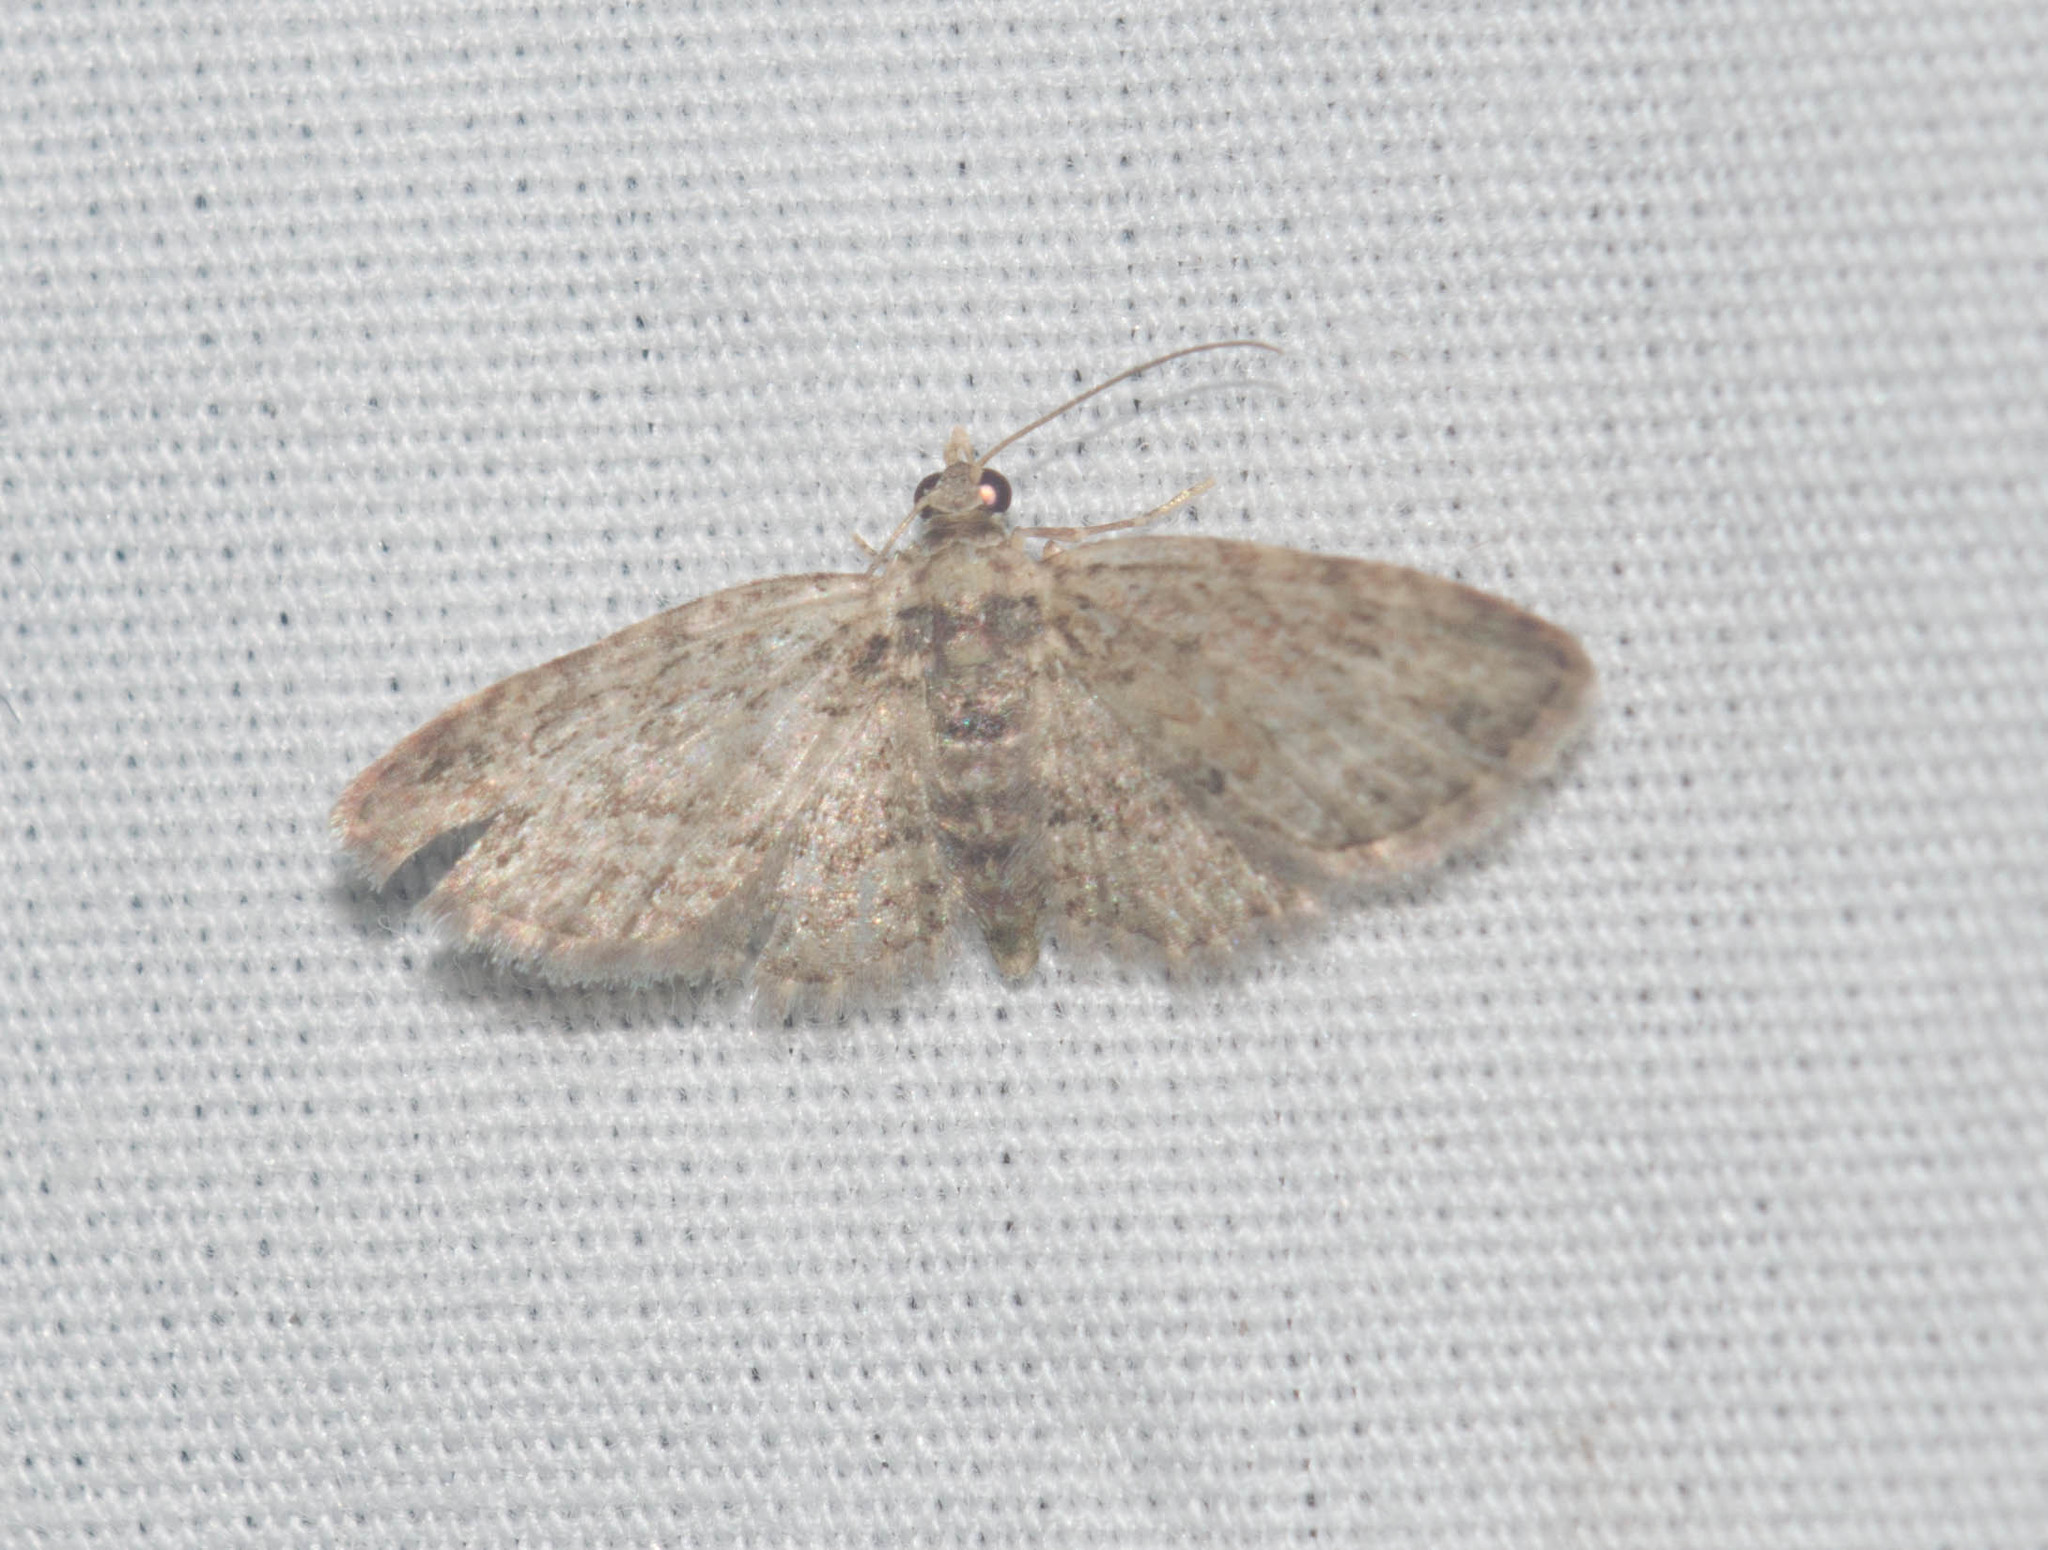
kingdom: Animalia
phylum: Arthropoda
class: Insecta
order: Lepidoptera
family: Geometridae
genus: Chloroclystis
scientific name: Chloroclystis pyrrholopha
